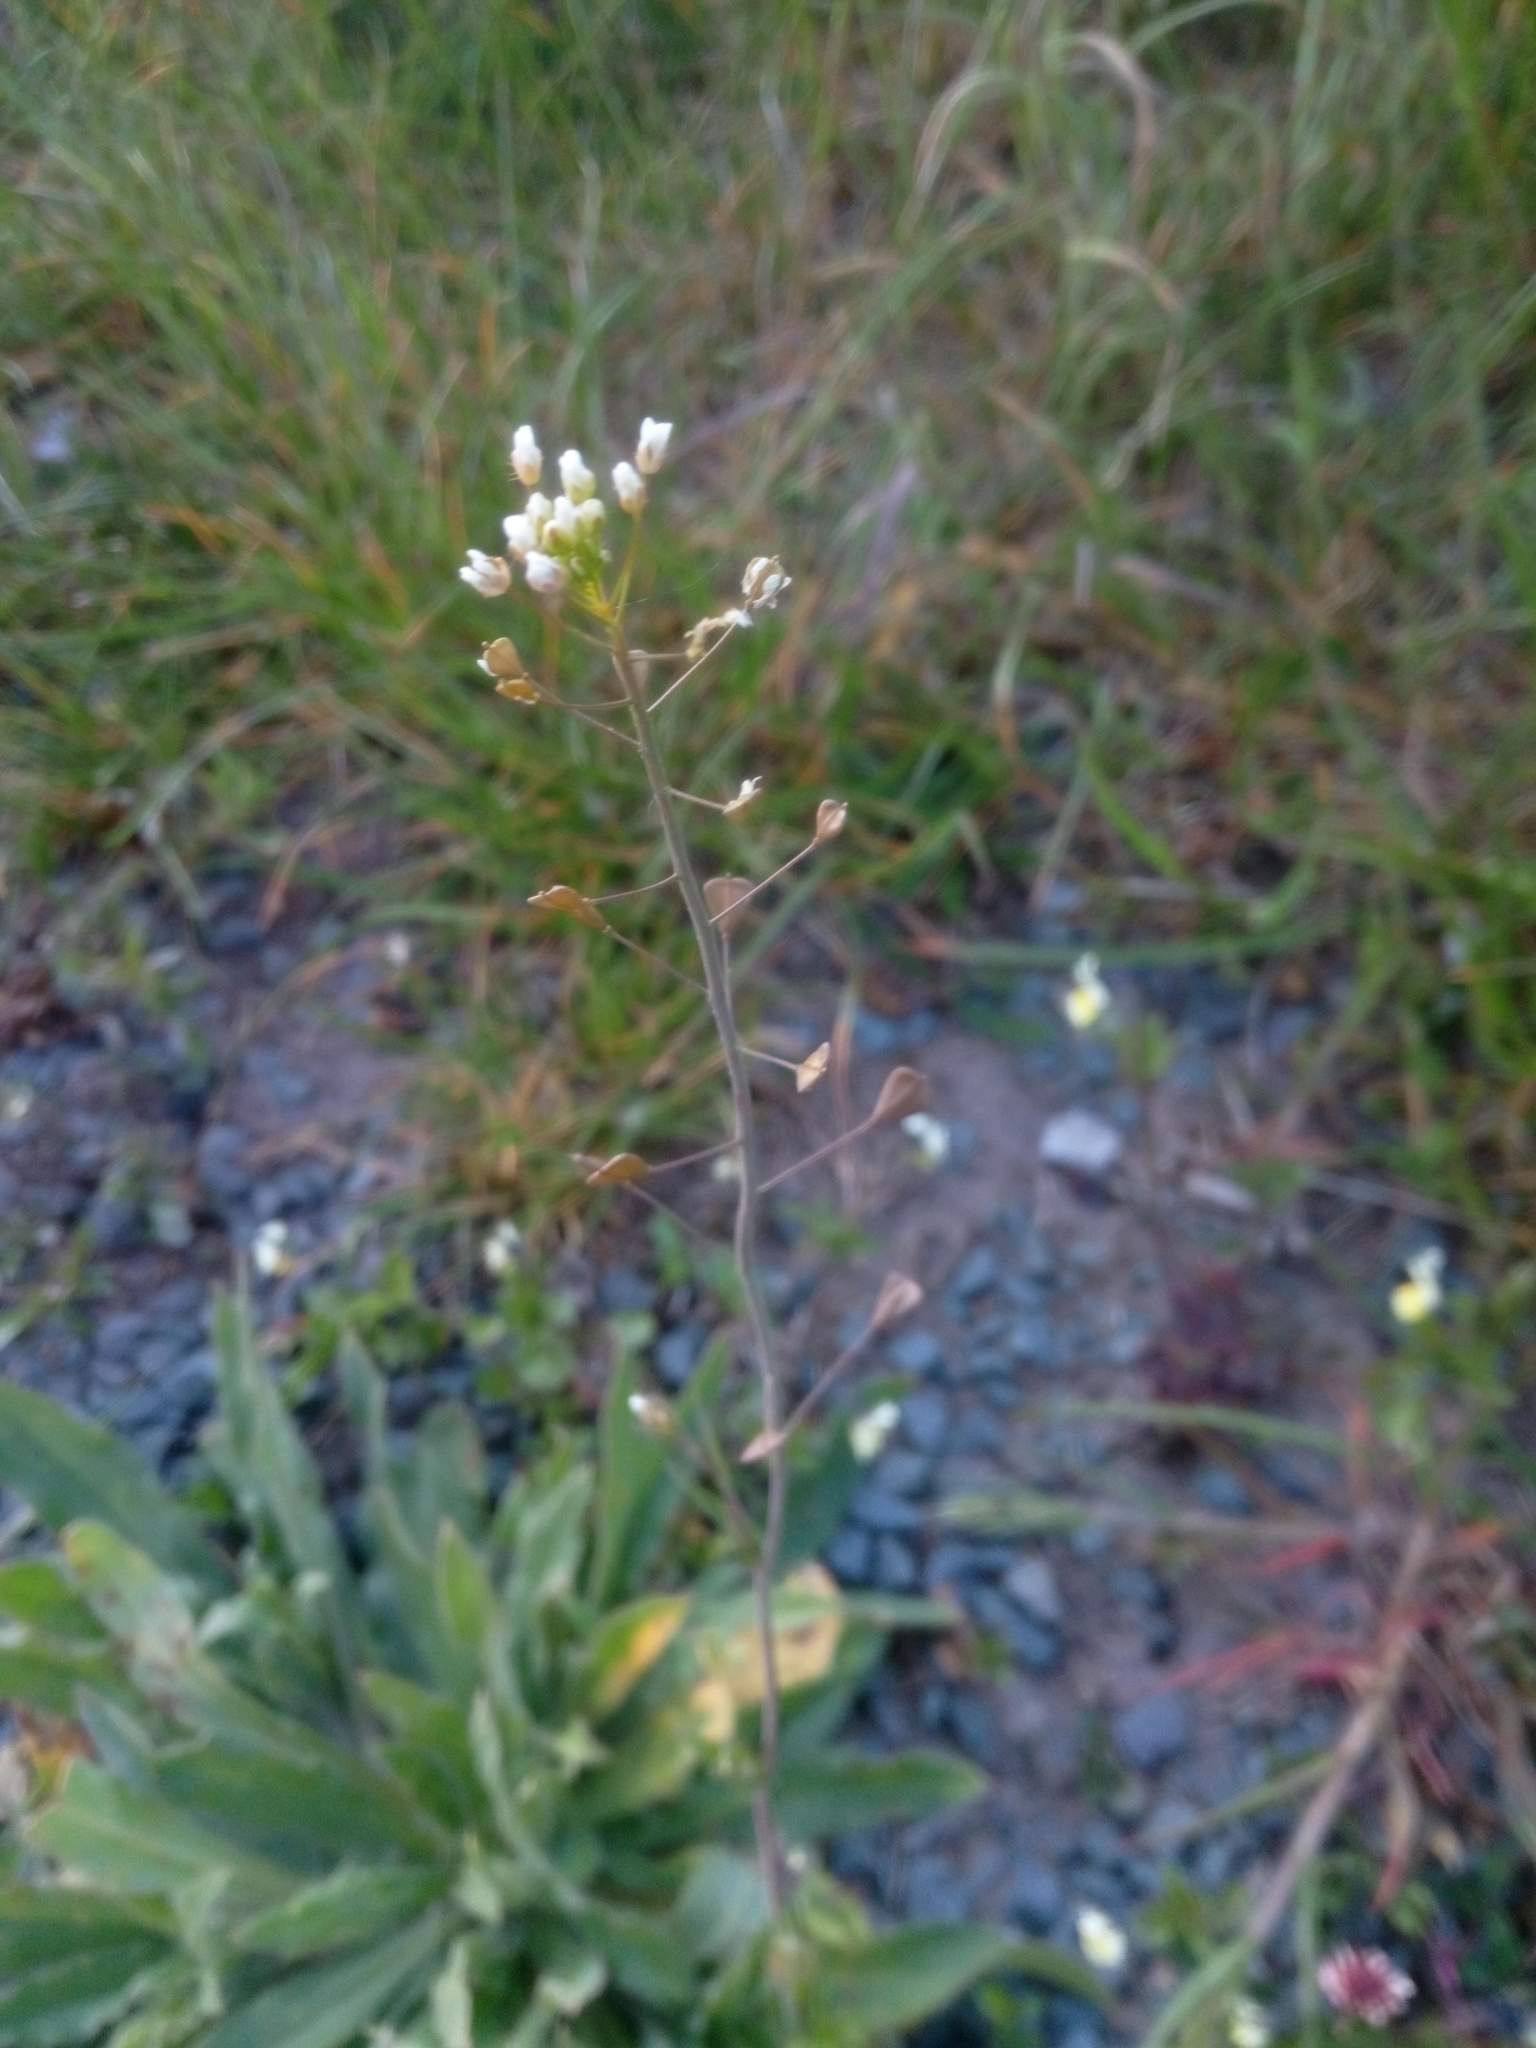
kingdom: Plantae
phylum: Tracheophyta
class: Magnoliopsida
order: Brassicales
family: Brassicaceae
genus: Capsella
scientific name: Capsella bursa-pastoris
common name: Shepherd's purse
